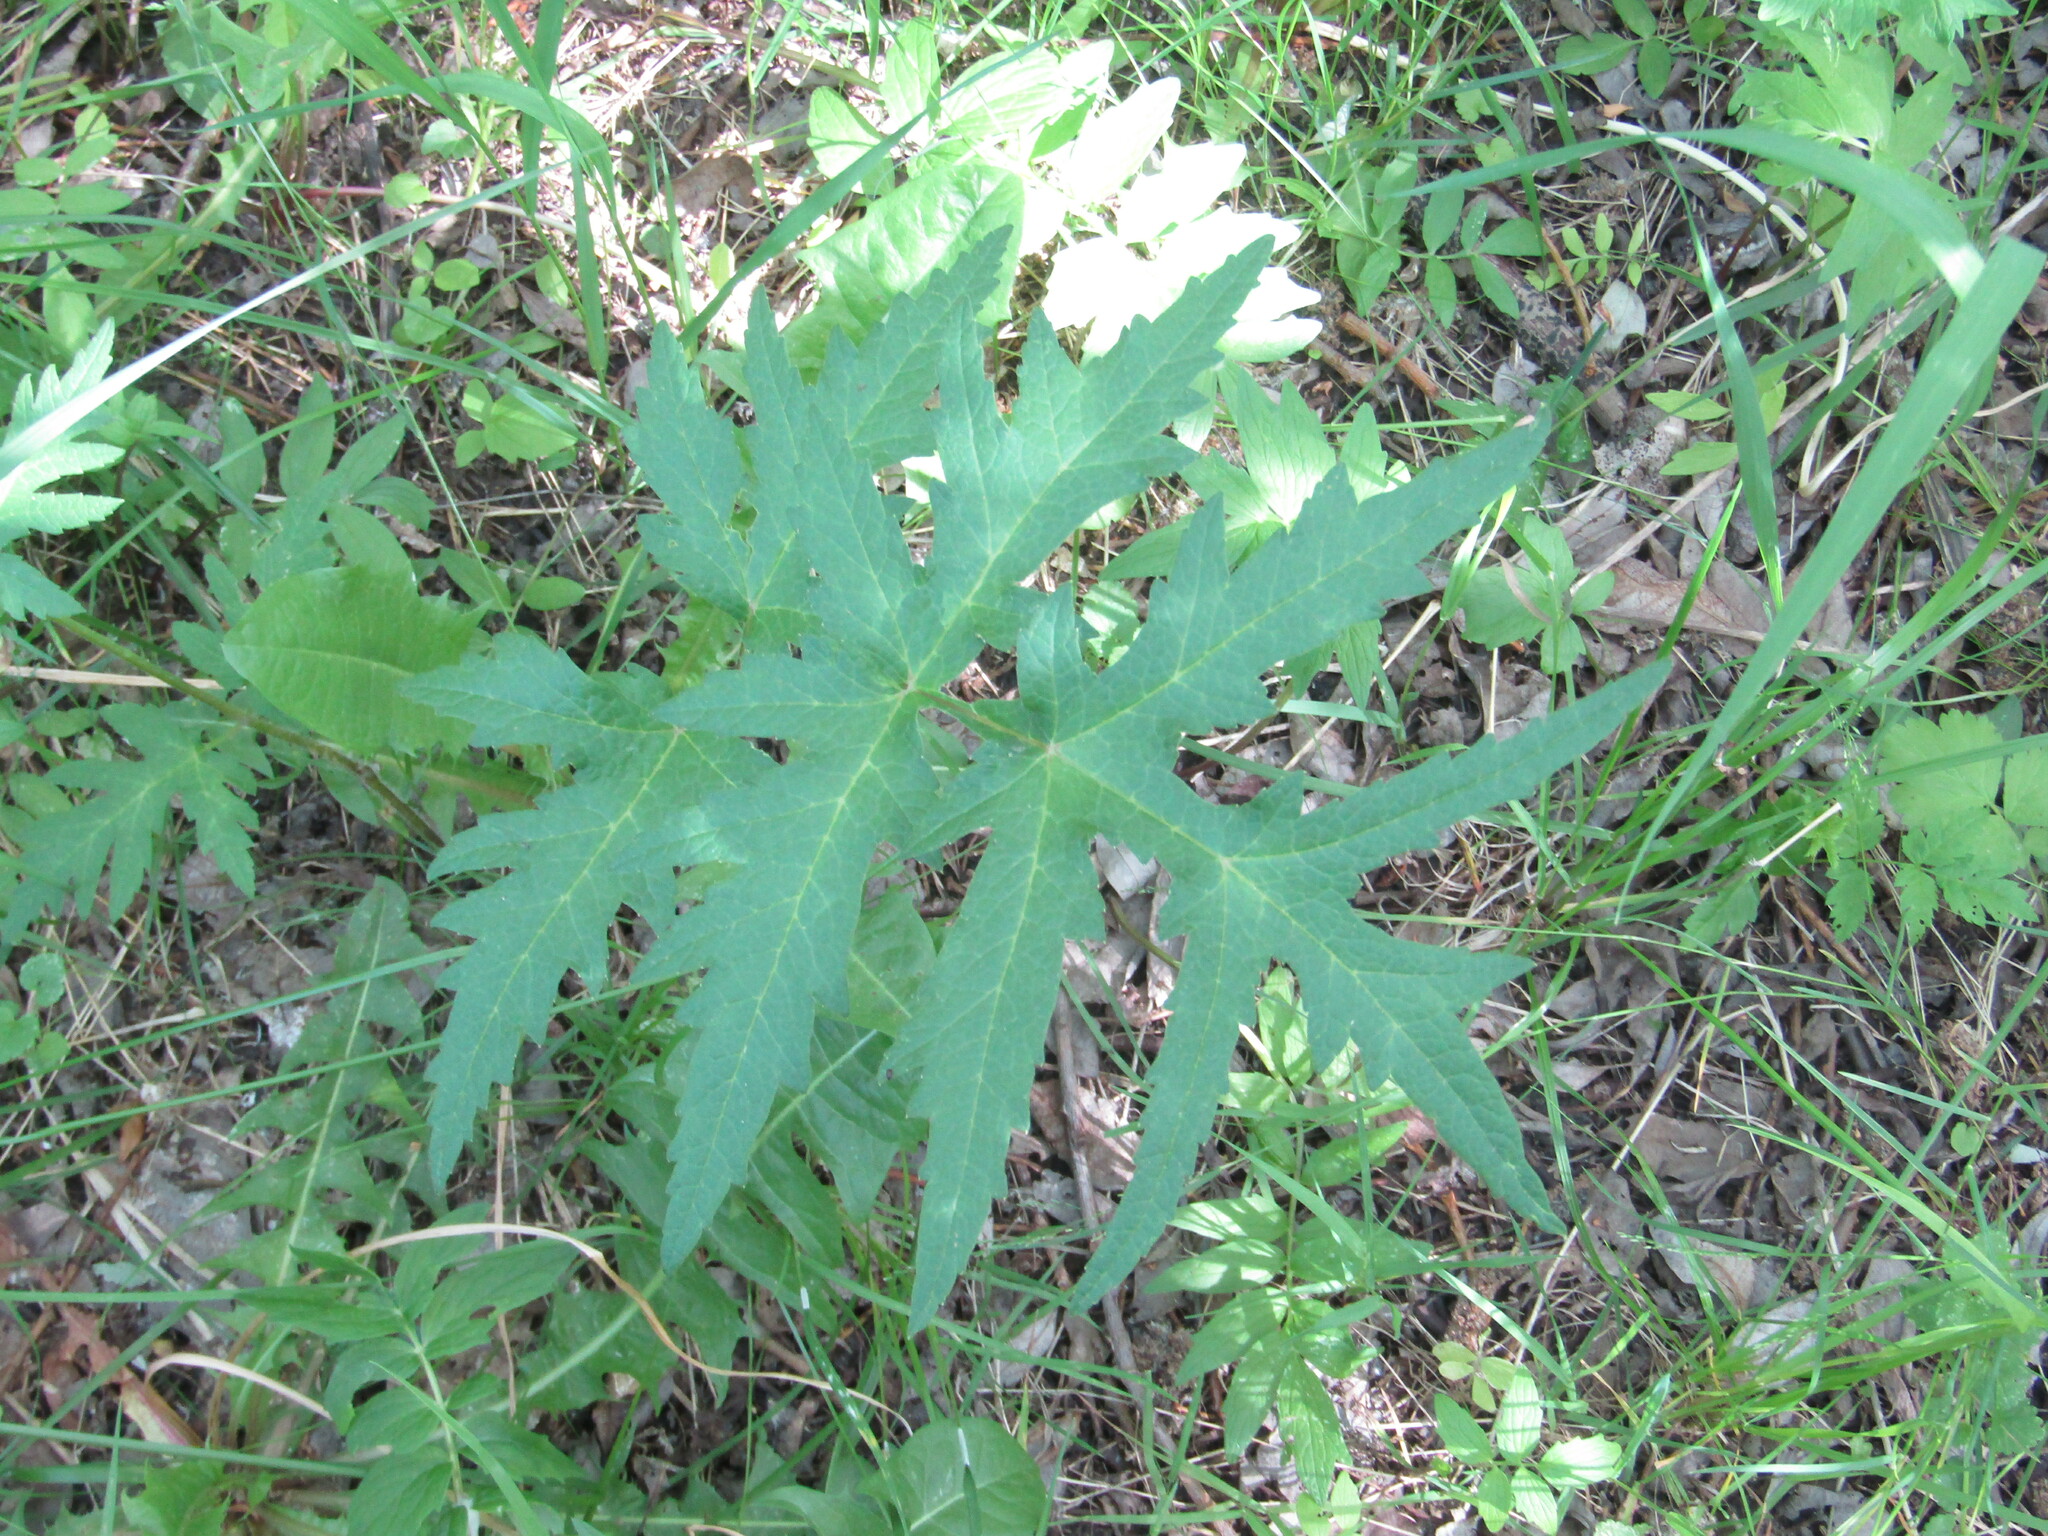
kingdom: Plantae
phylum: Tracheophyta
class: Magnoliopsida
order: Apiales
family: Apiaceae
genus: Heracleum
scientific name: Heracleum sphondylium
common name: Hogweed
